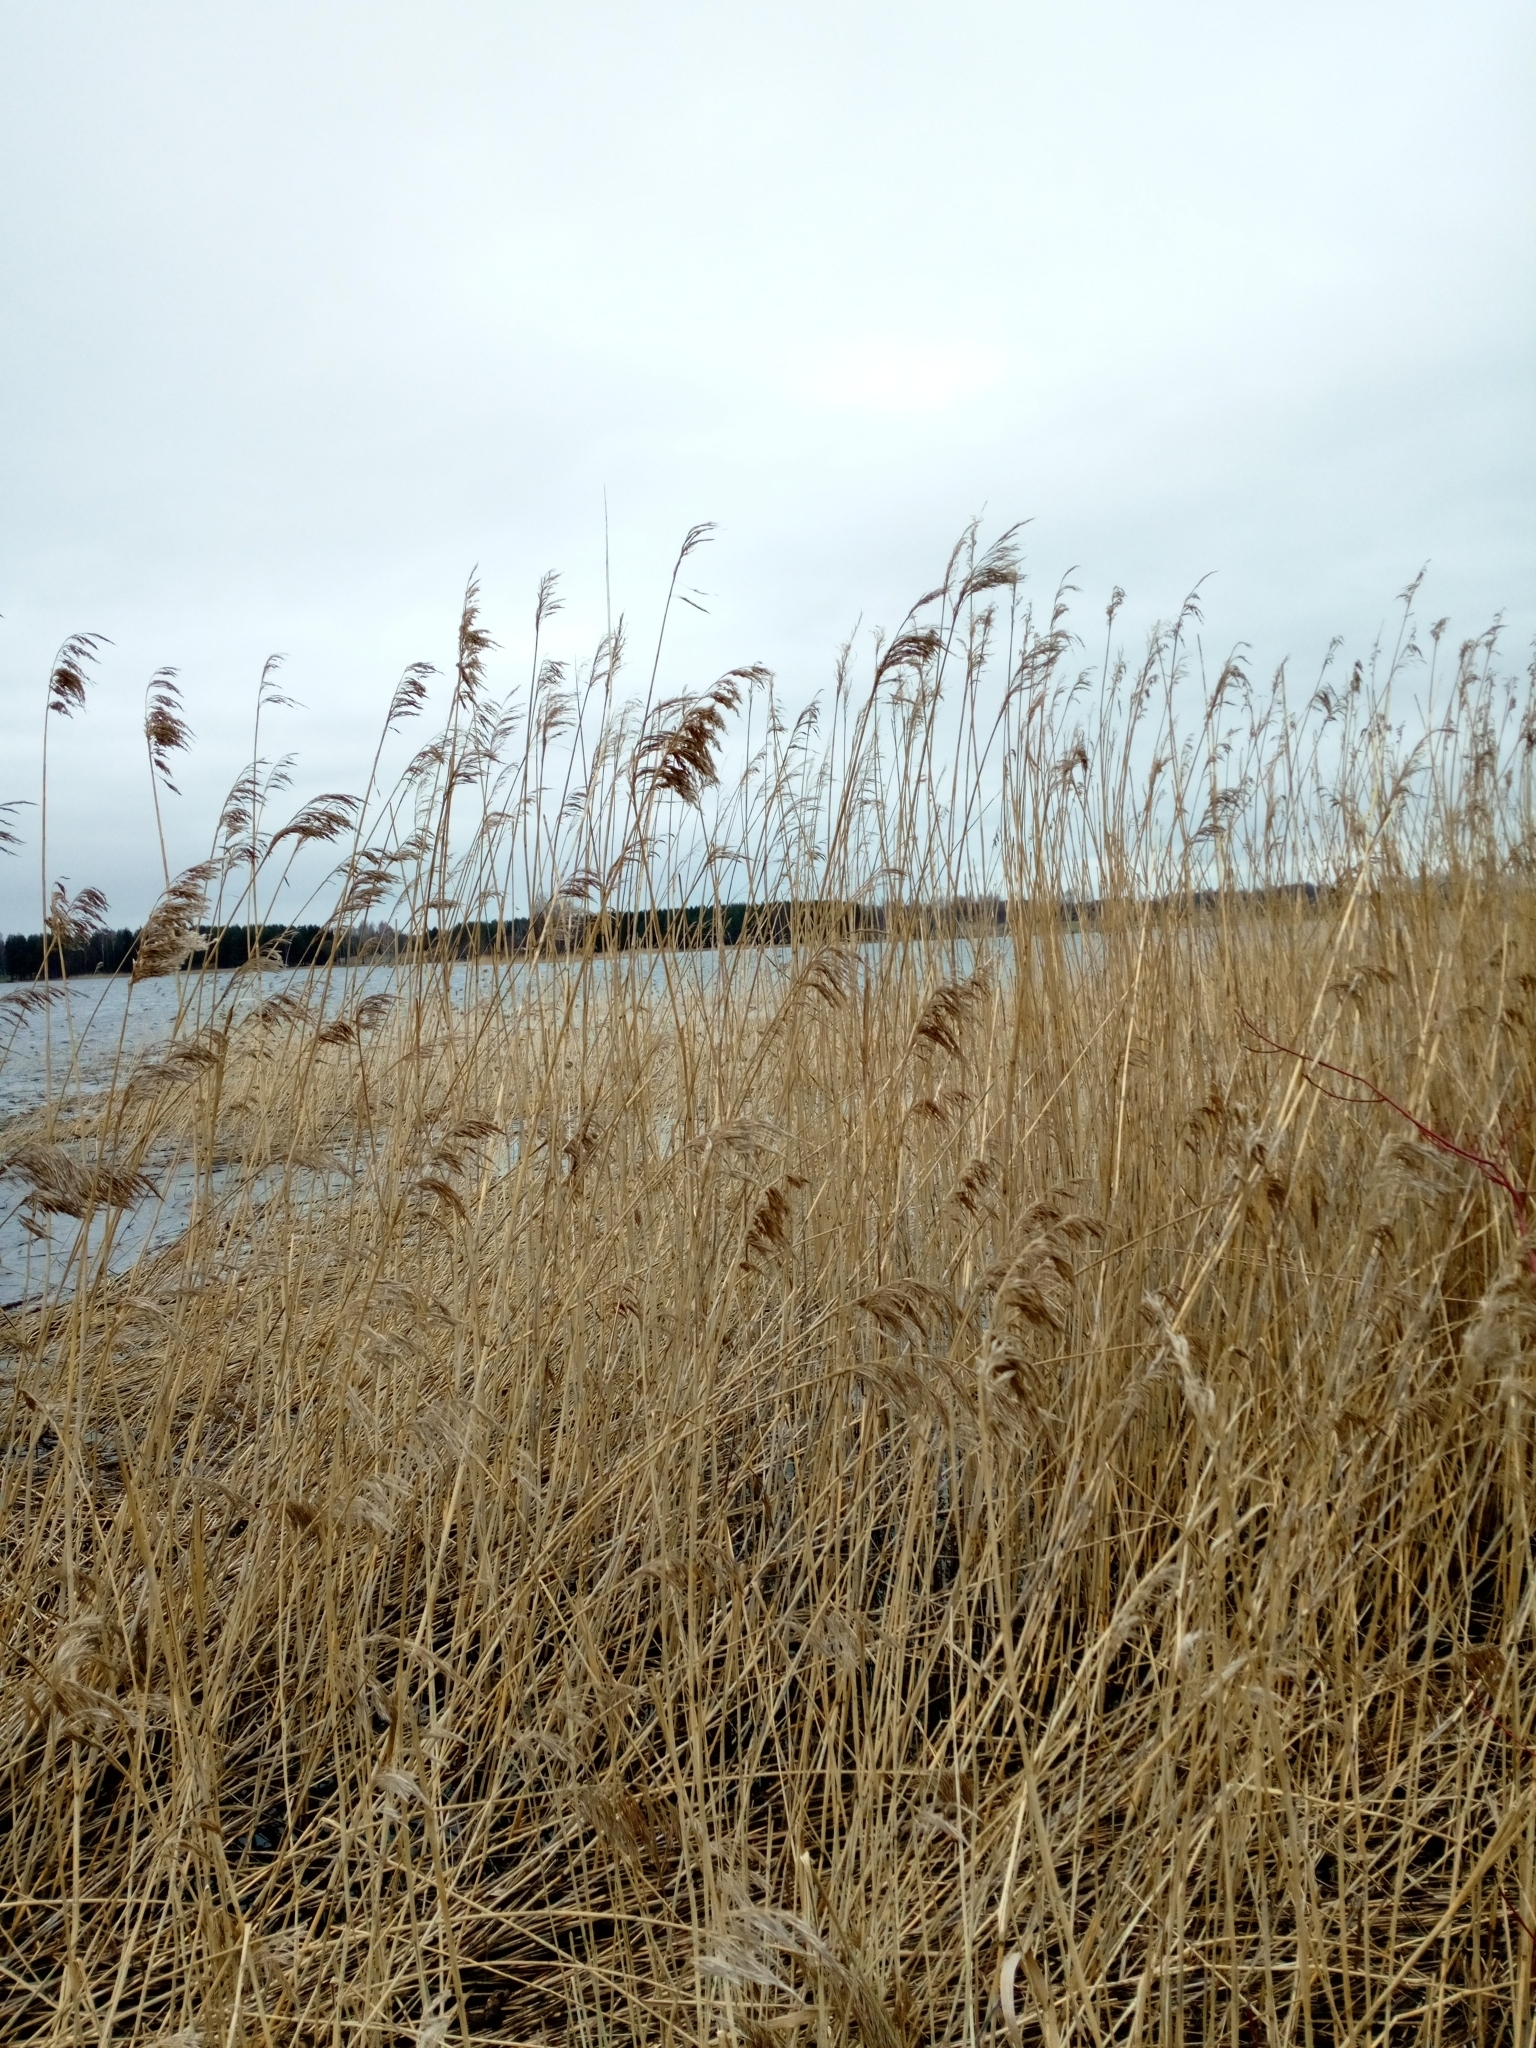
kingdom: Plantae
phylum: Tracheophyta
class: Liliopsida
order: Poales
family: Poaceae
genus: Phragmites
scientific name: Phragmites australis
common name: Common reed
